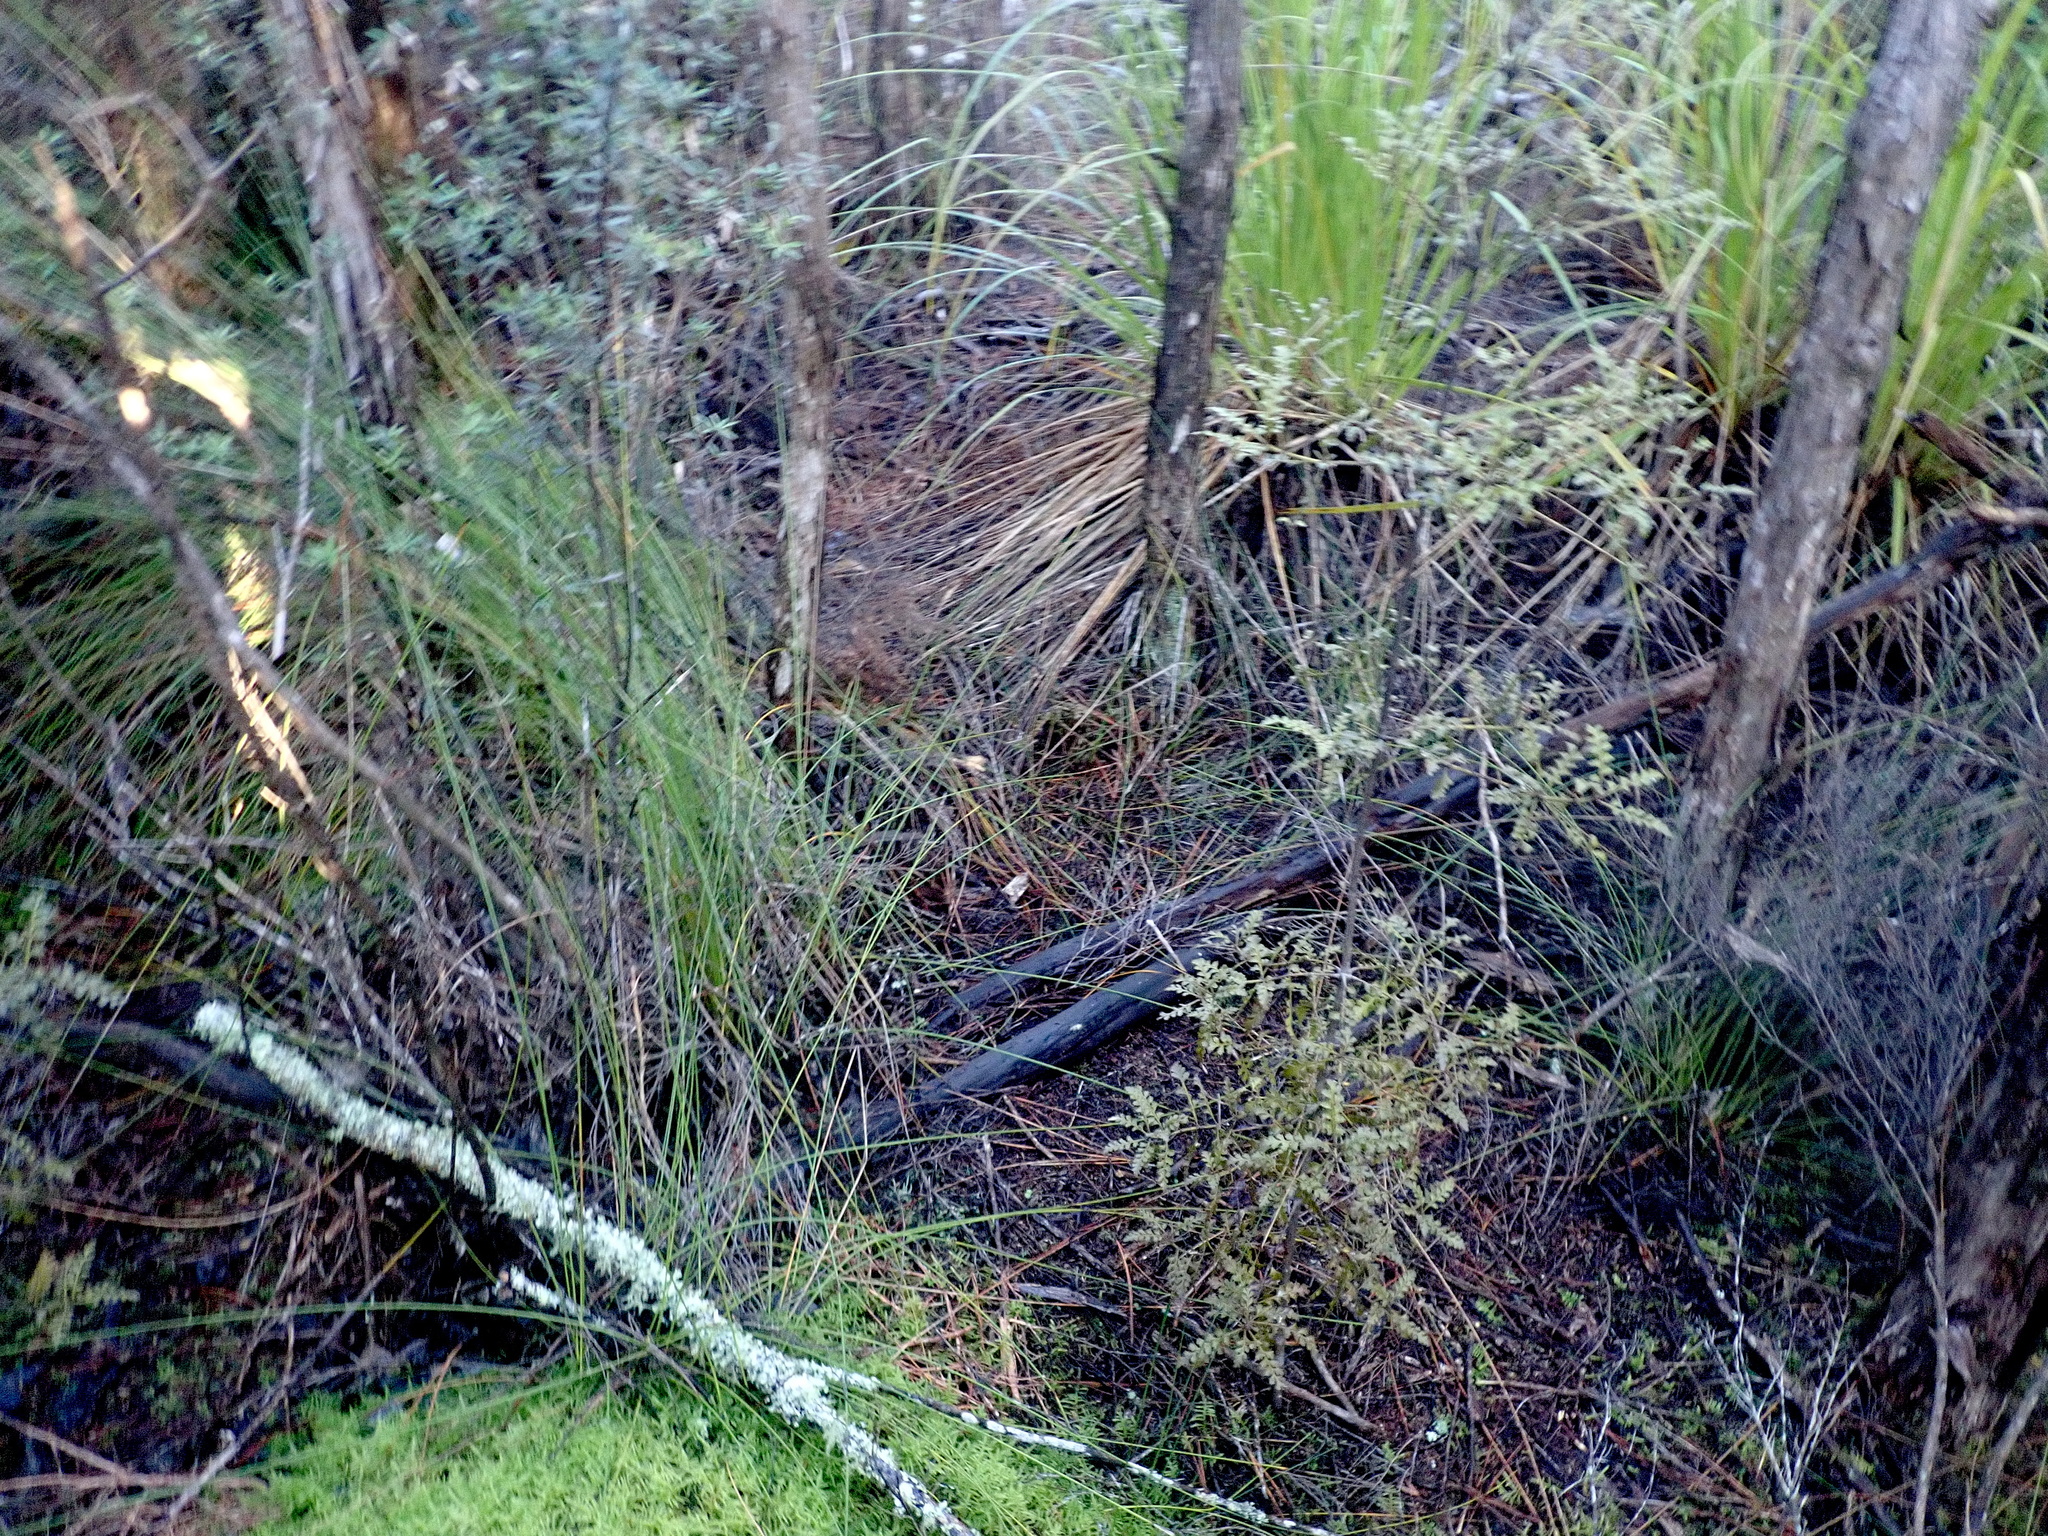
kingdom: Plantae
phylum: Tracheophyta
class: Pinopsida
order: Pinales
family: Phyllocladaceae
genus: Phyllocladus
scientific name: Phyllocladus trichomanoides
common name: Celery pine
